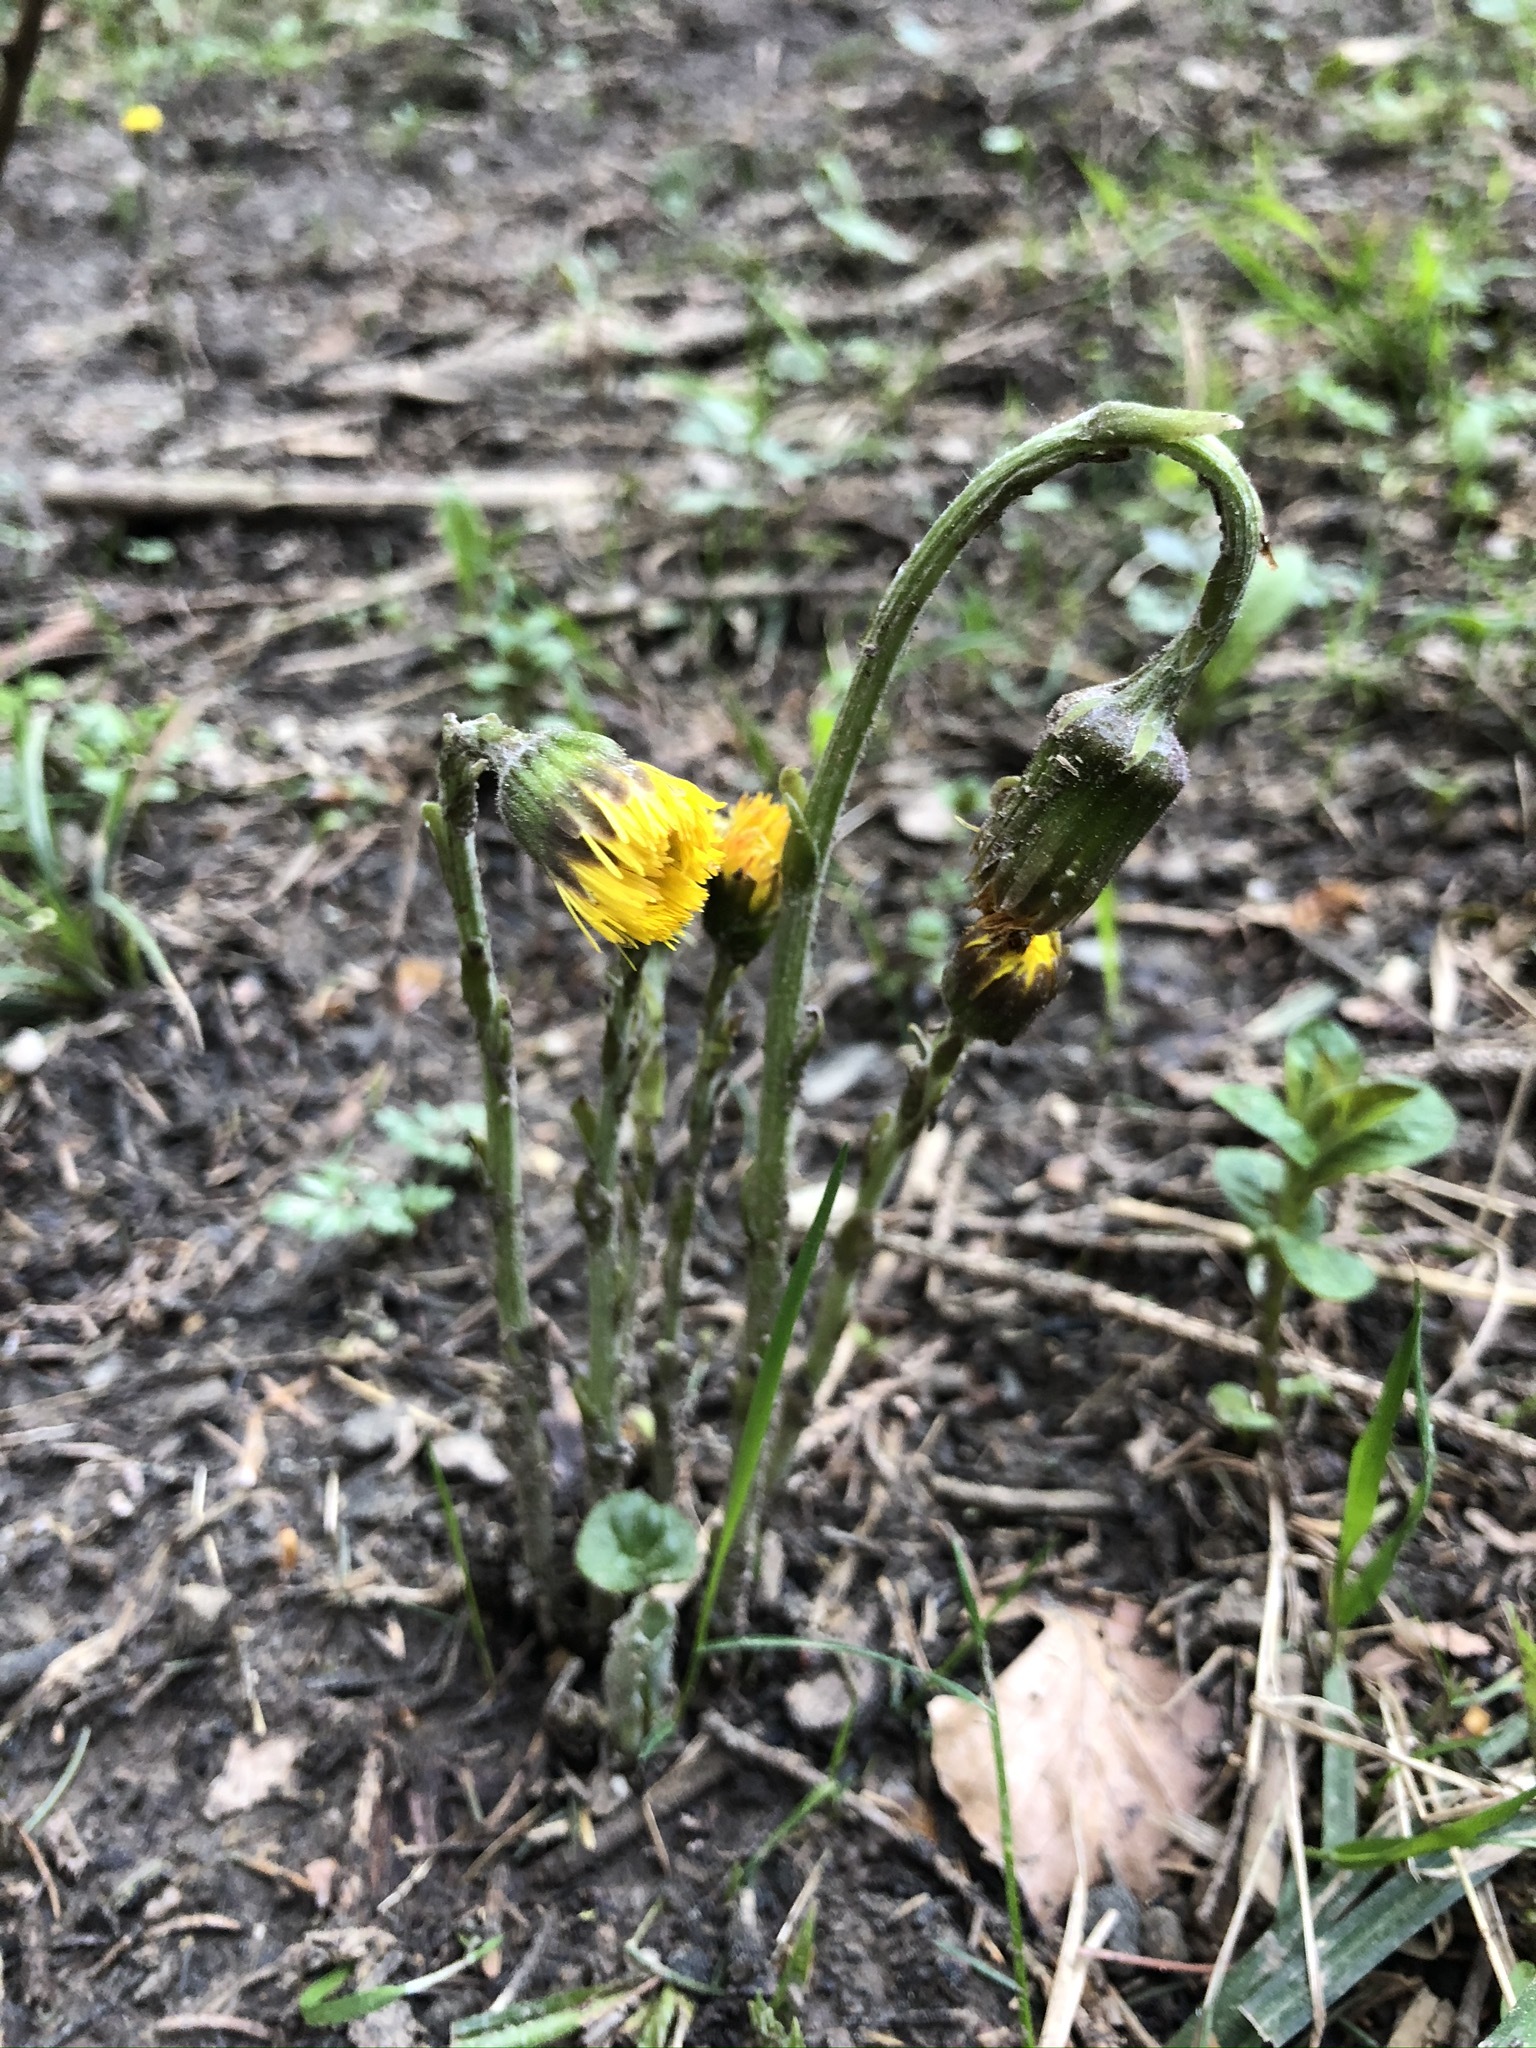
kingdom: Plantae
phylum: Tracheophyta
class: Magnoliopsida
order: Asterales
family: Asteraceae
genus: Tussilago
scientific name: Tussilago farfara
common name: Coltsfoot
